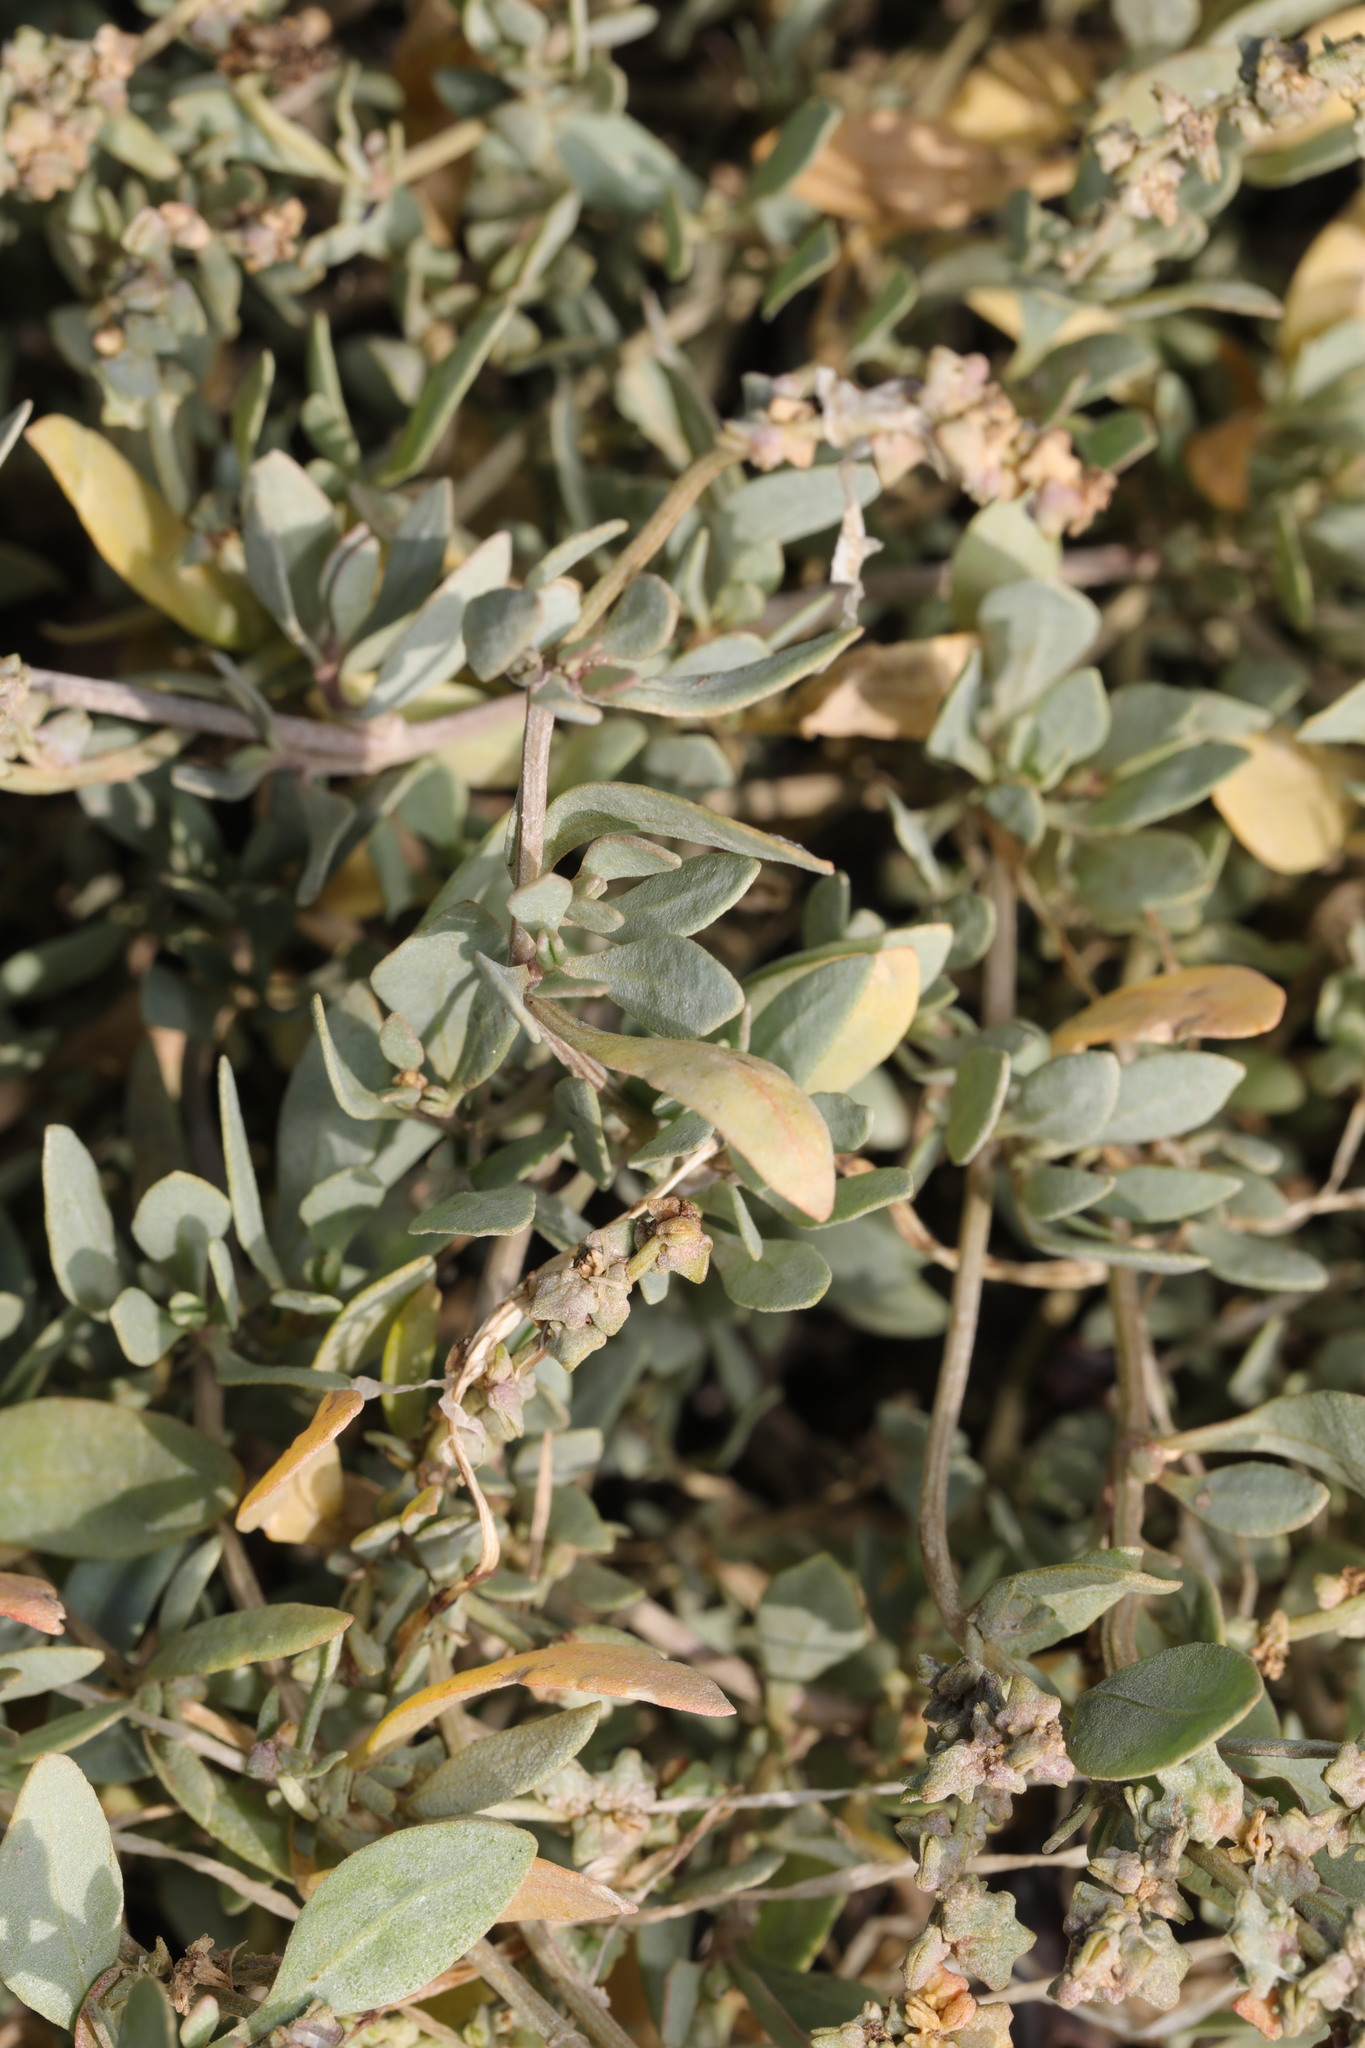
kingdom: Plantae
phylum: Tracheophyta
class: Magnoliopsida
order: Caryophyllales
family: Amaranthaceae
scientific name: Amaranthaceae
